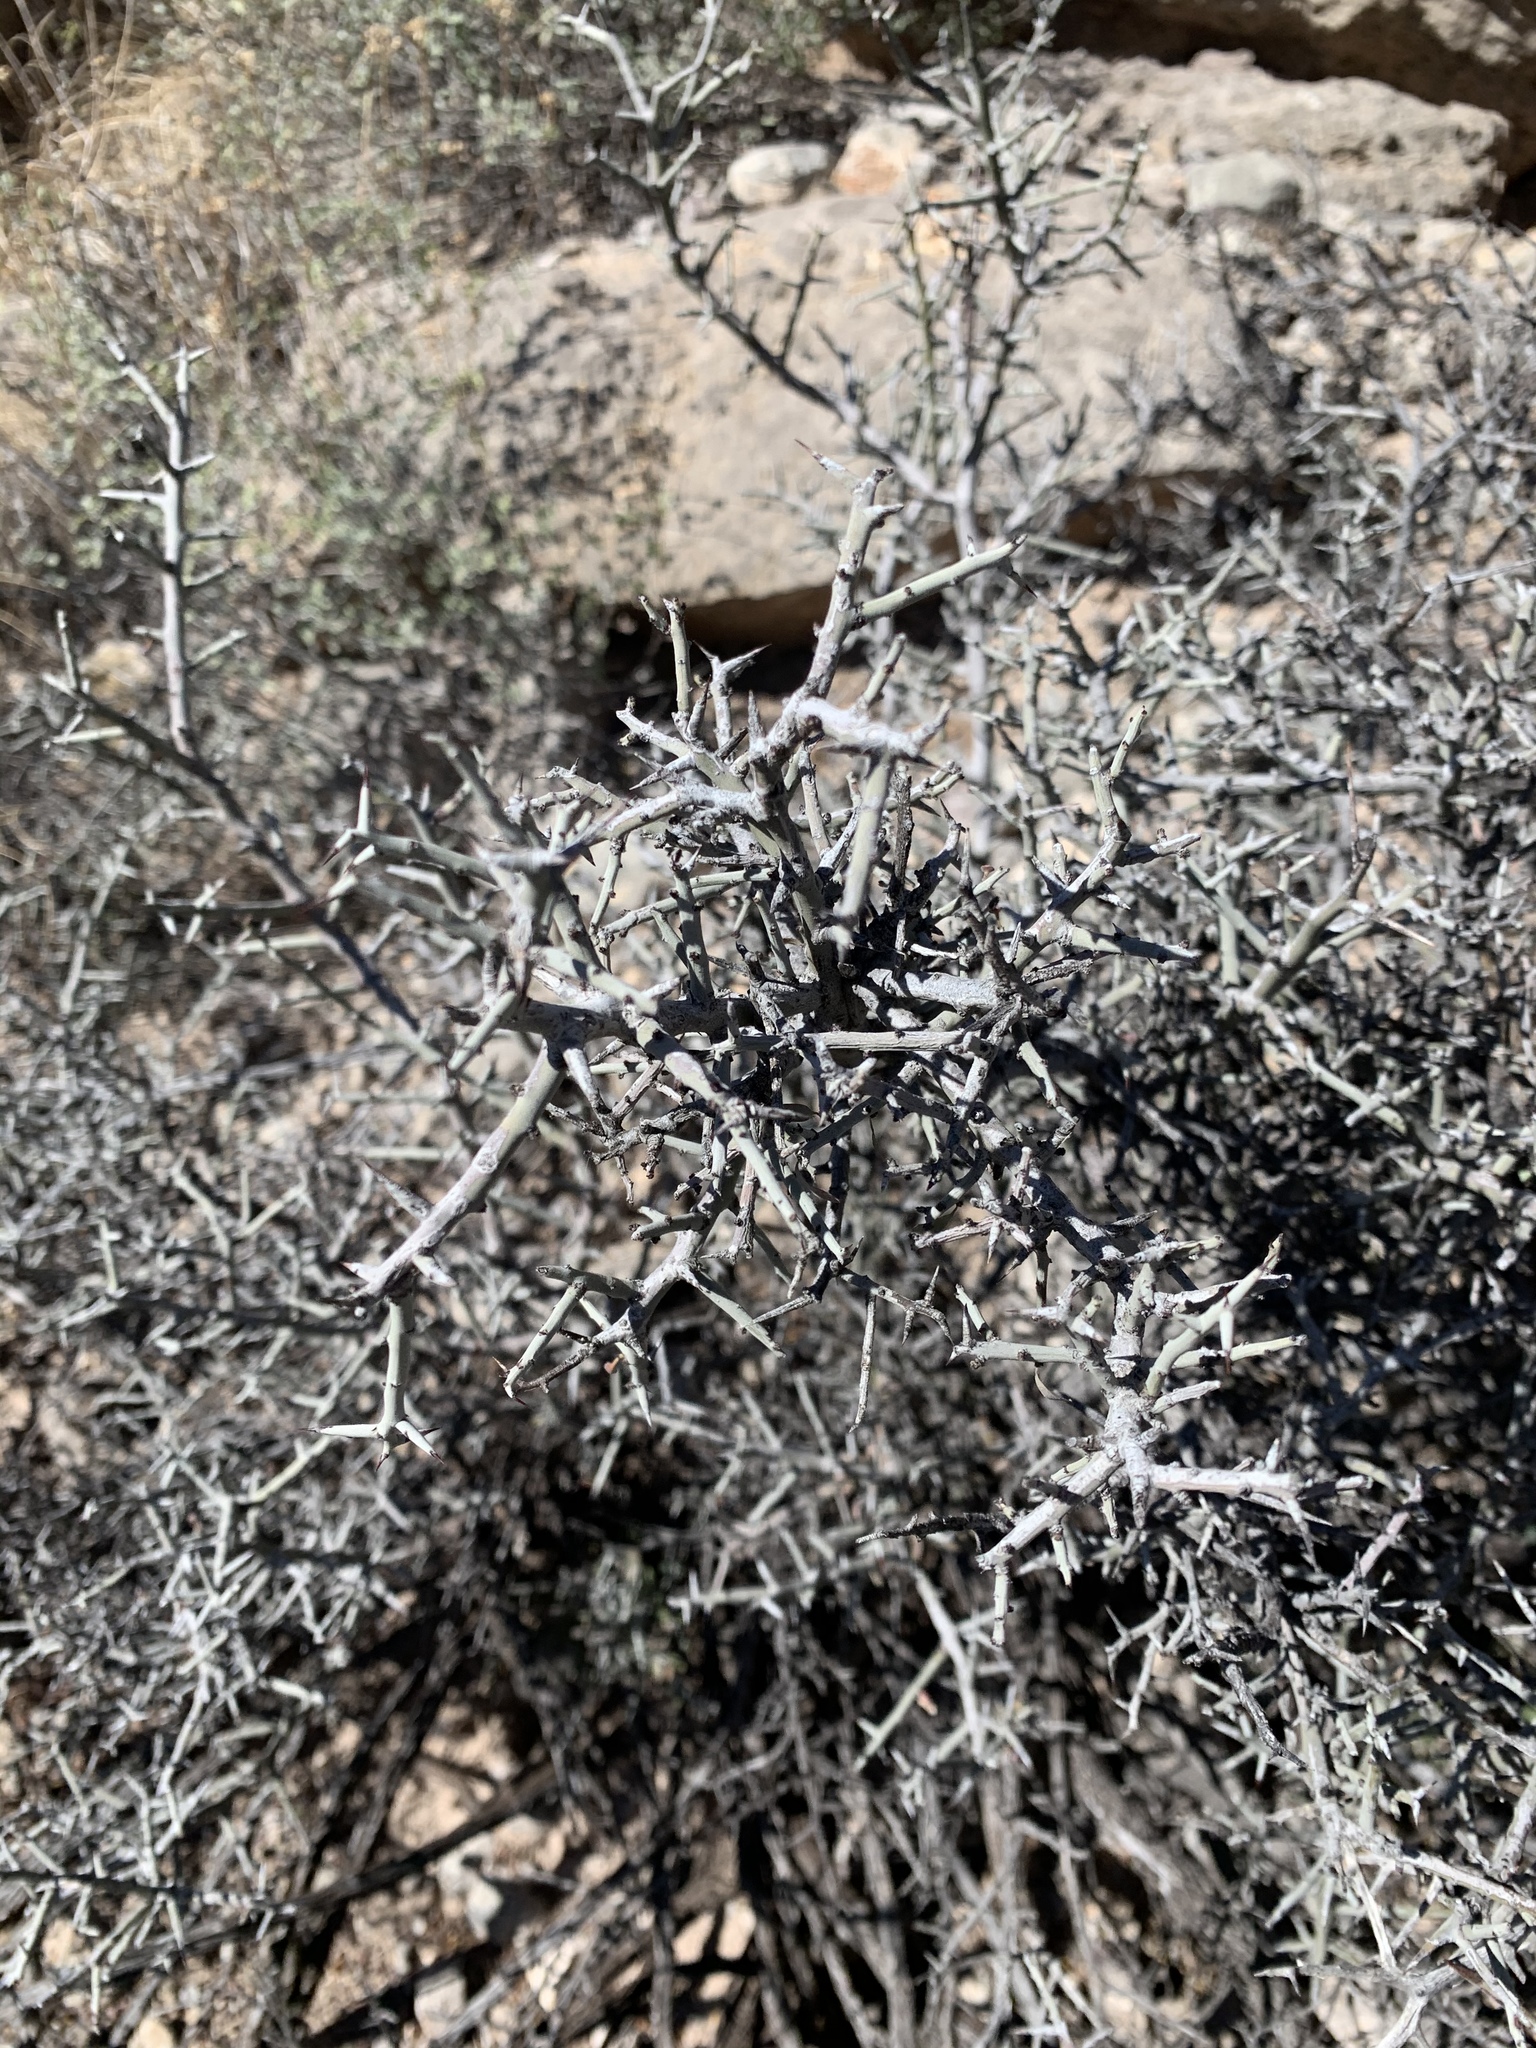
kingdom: Plantae
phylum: Tracheophyta
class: Magnoliopsida
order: Rosales
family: Rhamnaceae
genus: Sarcomphalus
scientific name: Sarcomphalus obtusifolius
